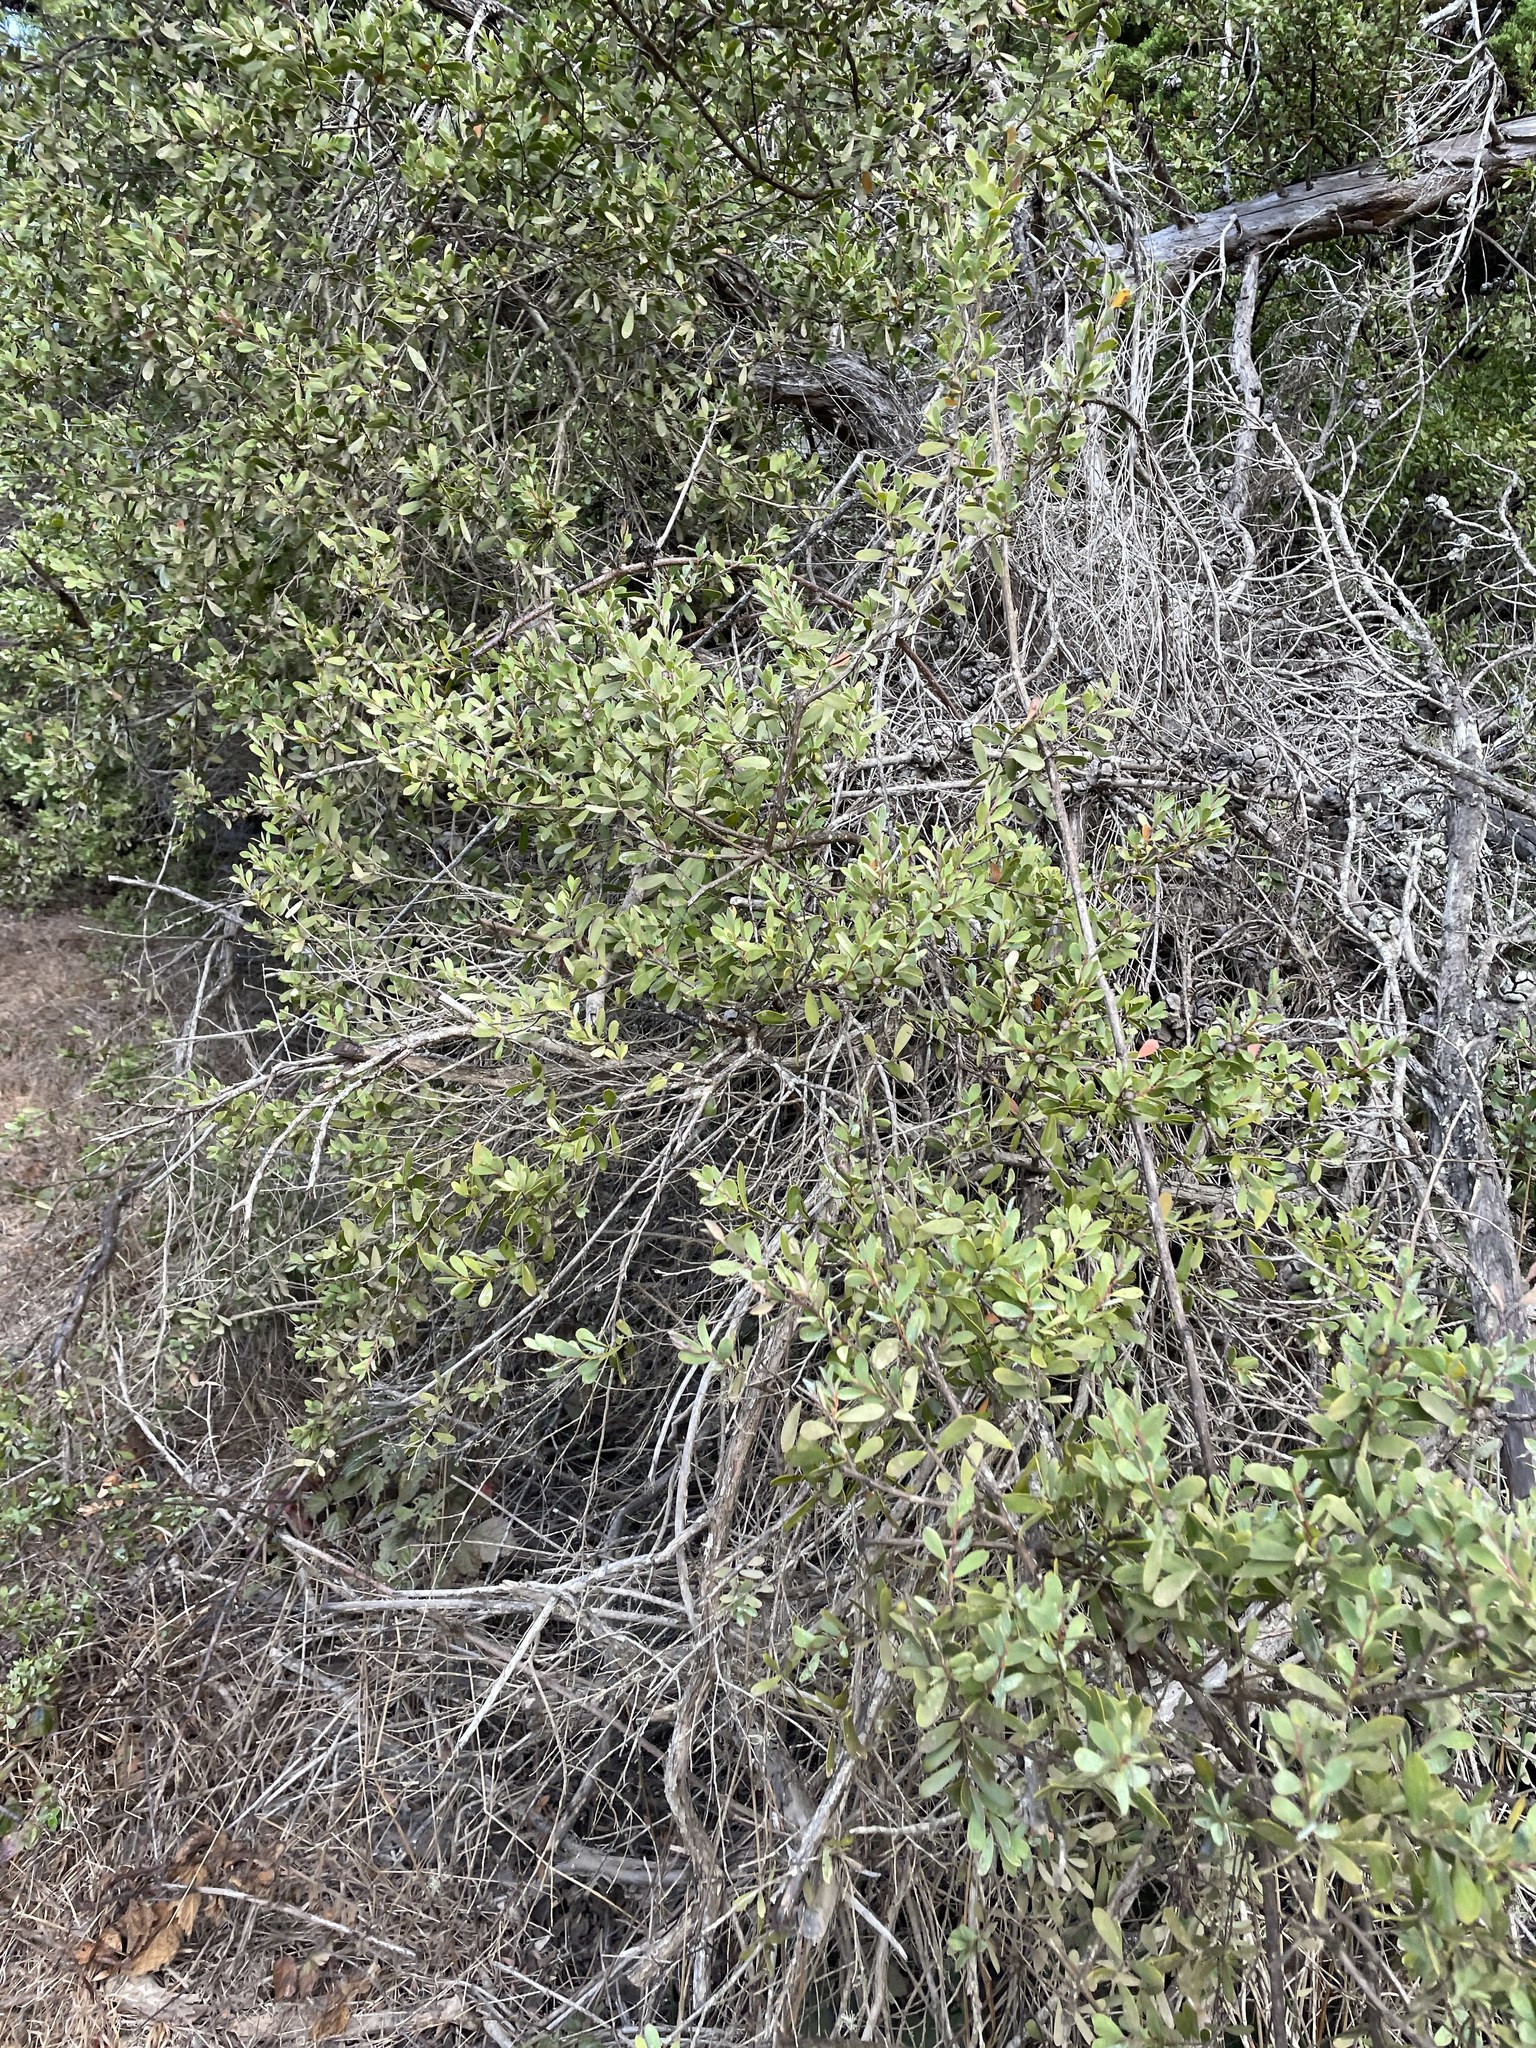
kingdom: Plantae
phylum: Tracheophyta
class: Magnoliopsida
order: Myrtales
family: Myrtaceae
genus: Leptospermum
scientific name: Leptospermum laevigatum
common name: Australian teatree
